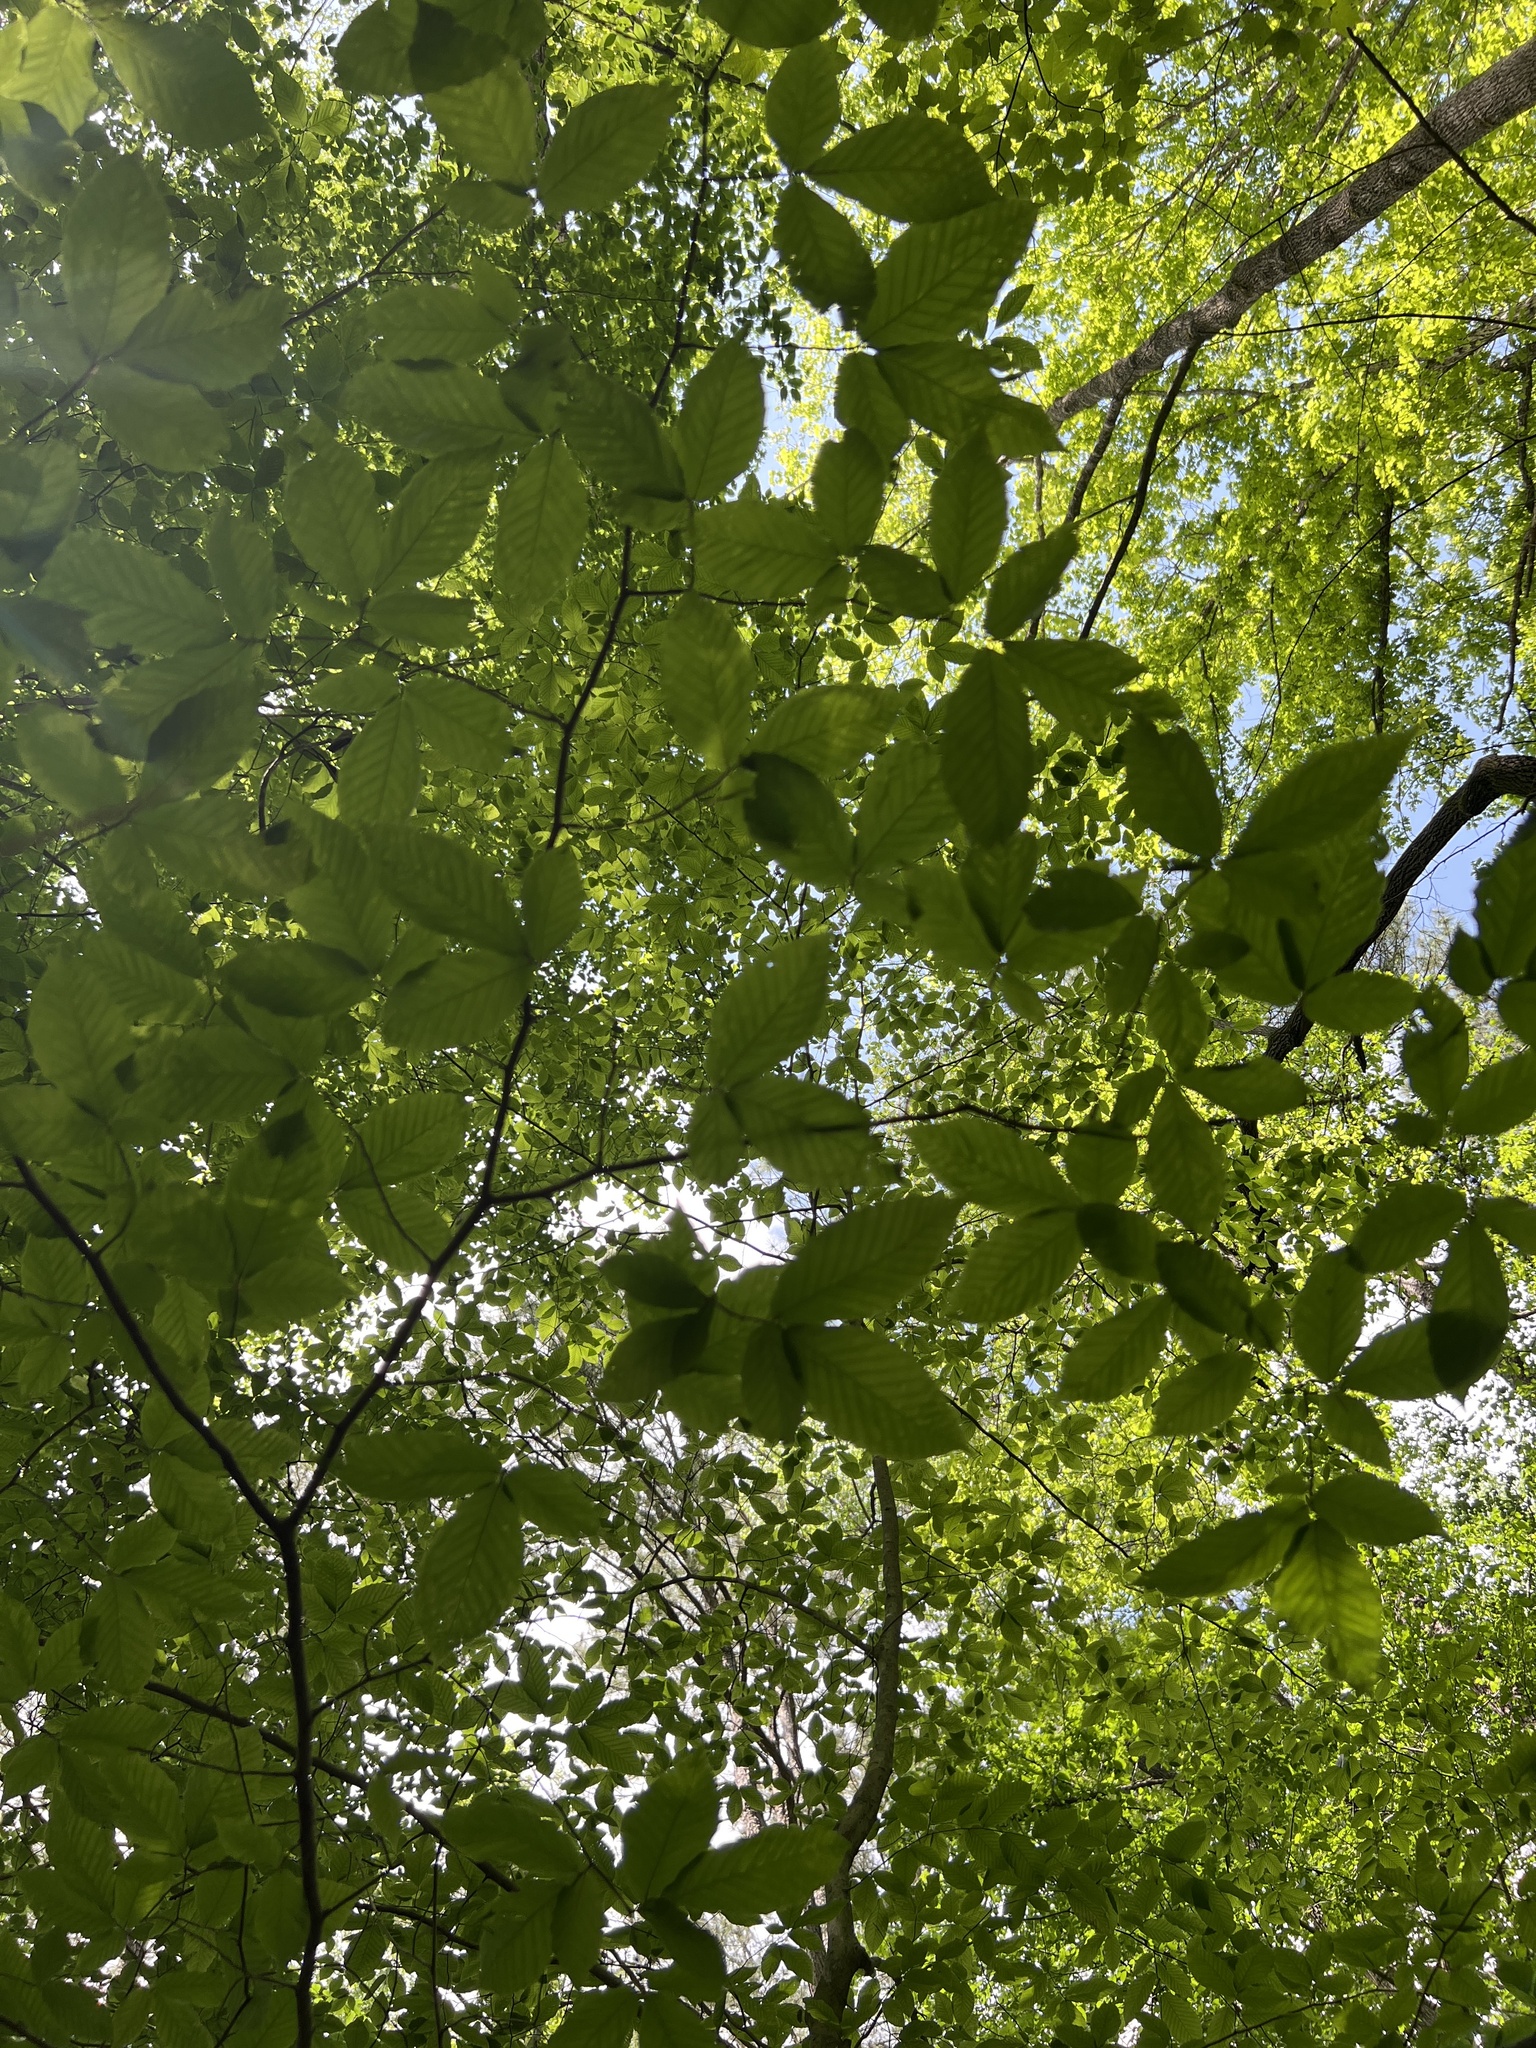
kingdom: Plantae
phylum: Tracheophyta
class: Magnoliopsida
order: Fagales
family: Fagaceae
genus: Fagus
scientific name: Fagus grandifolia
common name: American beech
